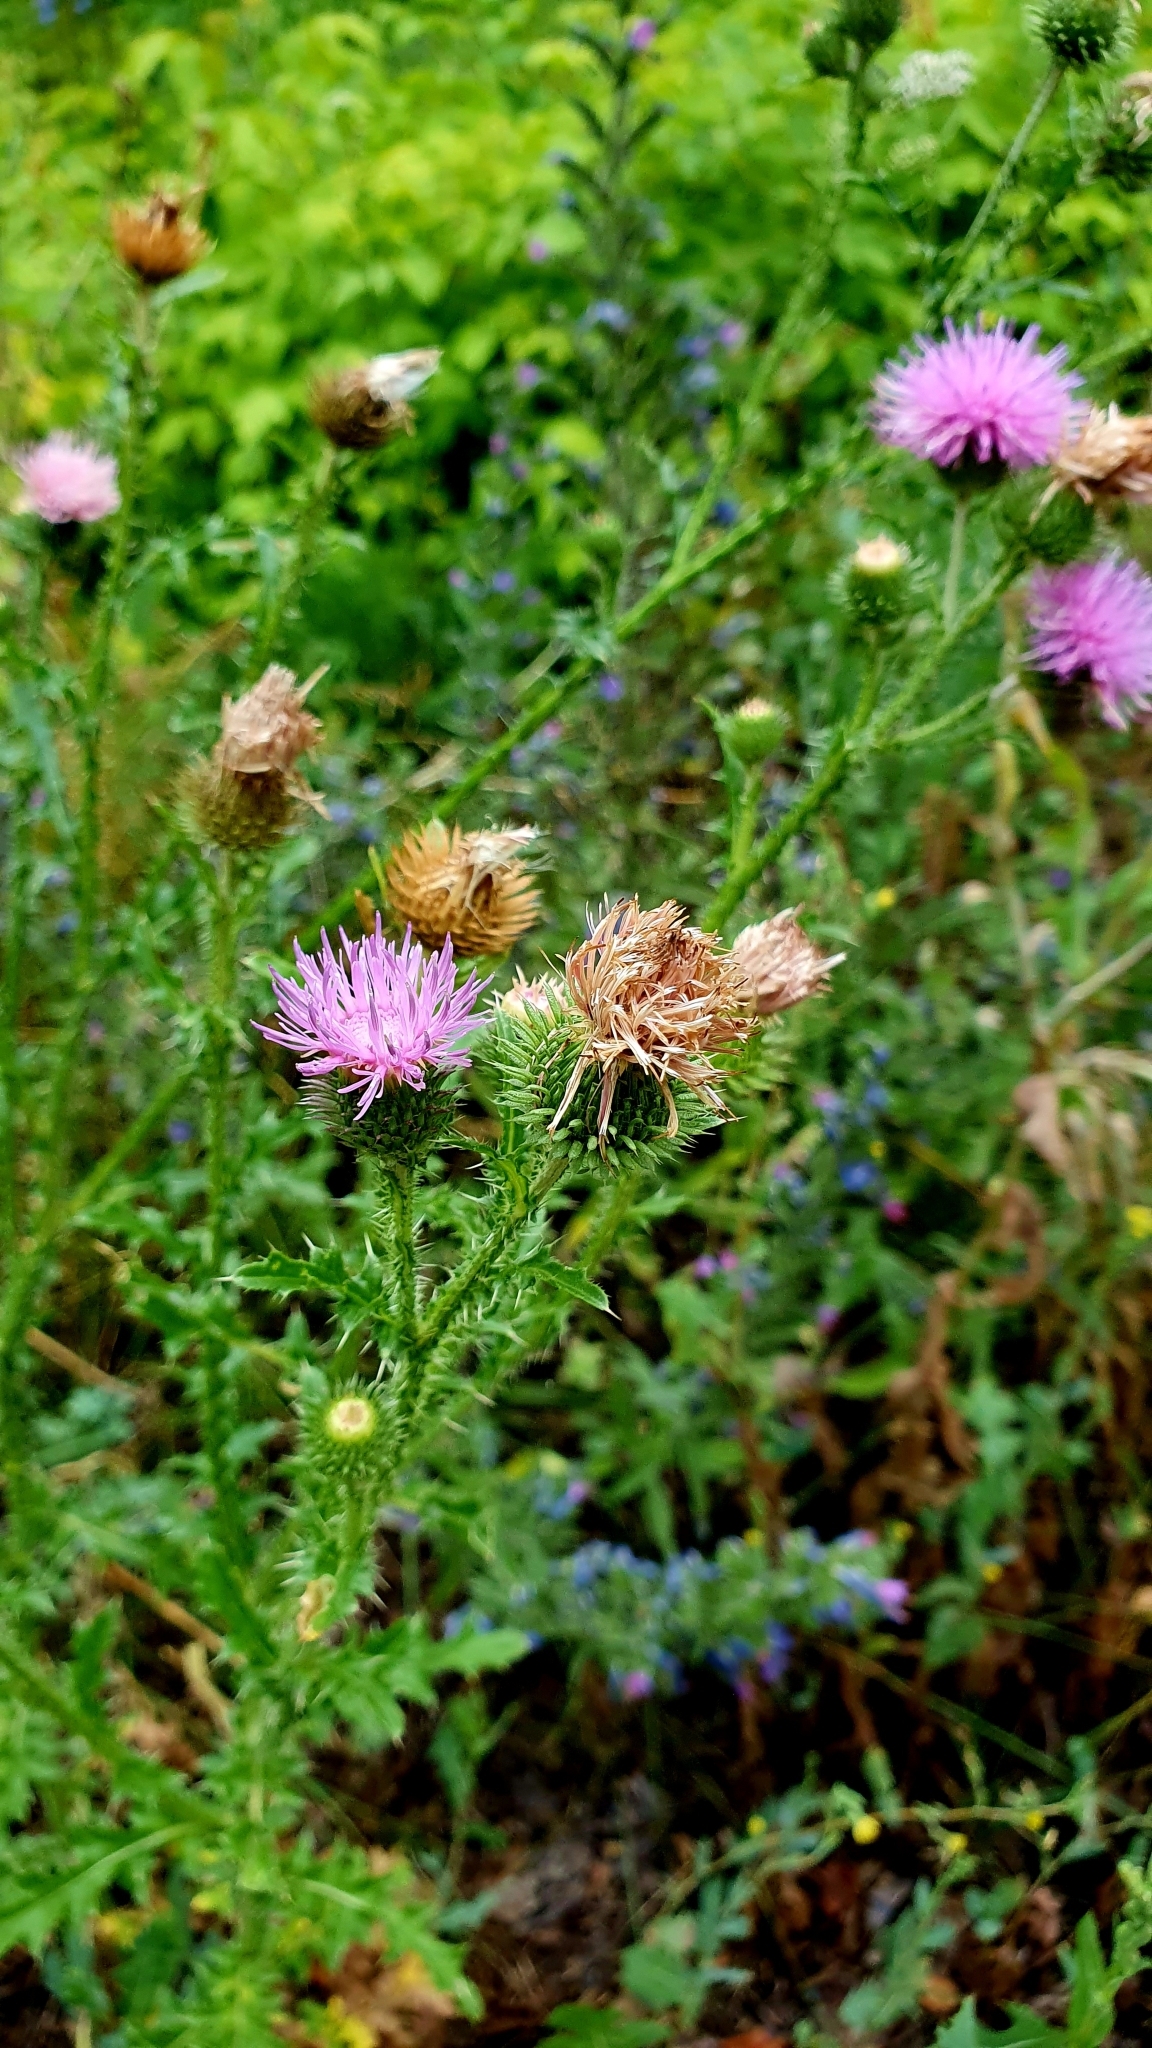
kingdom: Plantae
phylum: Tracheophyta
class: Magnoliopsida
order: Asterales
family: Asteraceae
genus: Carduus
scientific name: Carduus acanthoides
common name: Plumeless thistle
